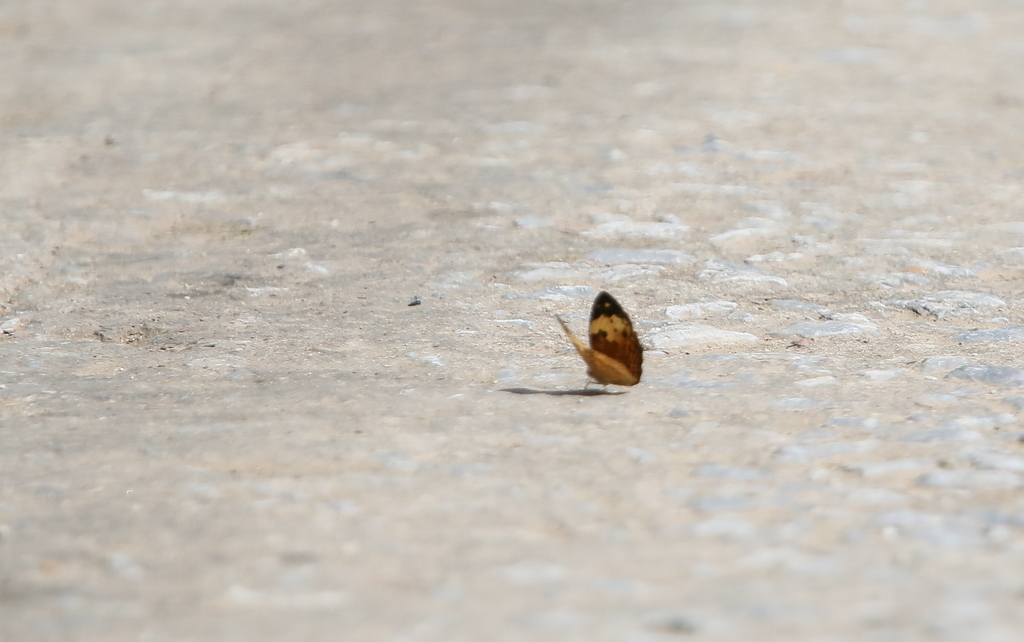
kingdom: Animalia
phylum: Arthropoda
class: Insecta
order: Lepidoptera
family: Nymphalidae
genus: Cupha
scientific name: Cupha erymanthis
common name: Rustic
